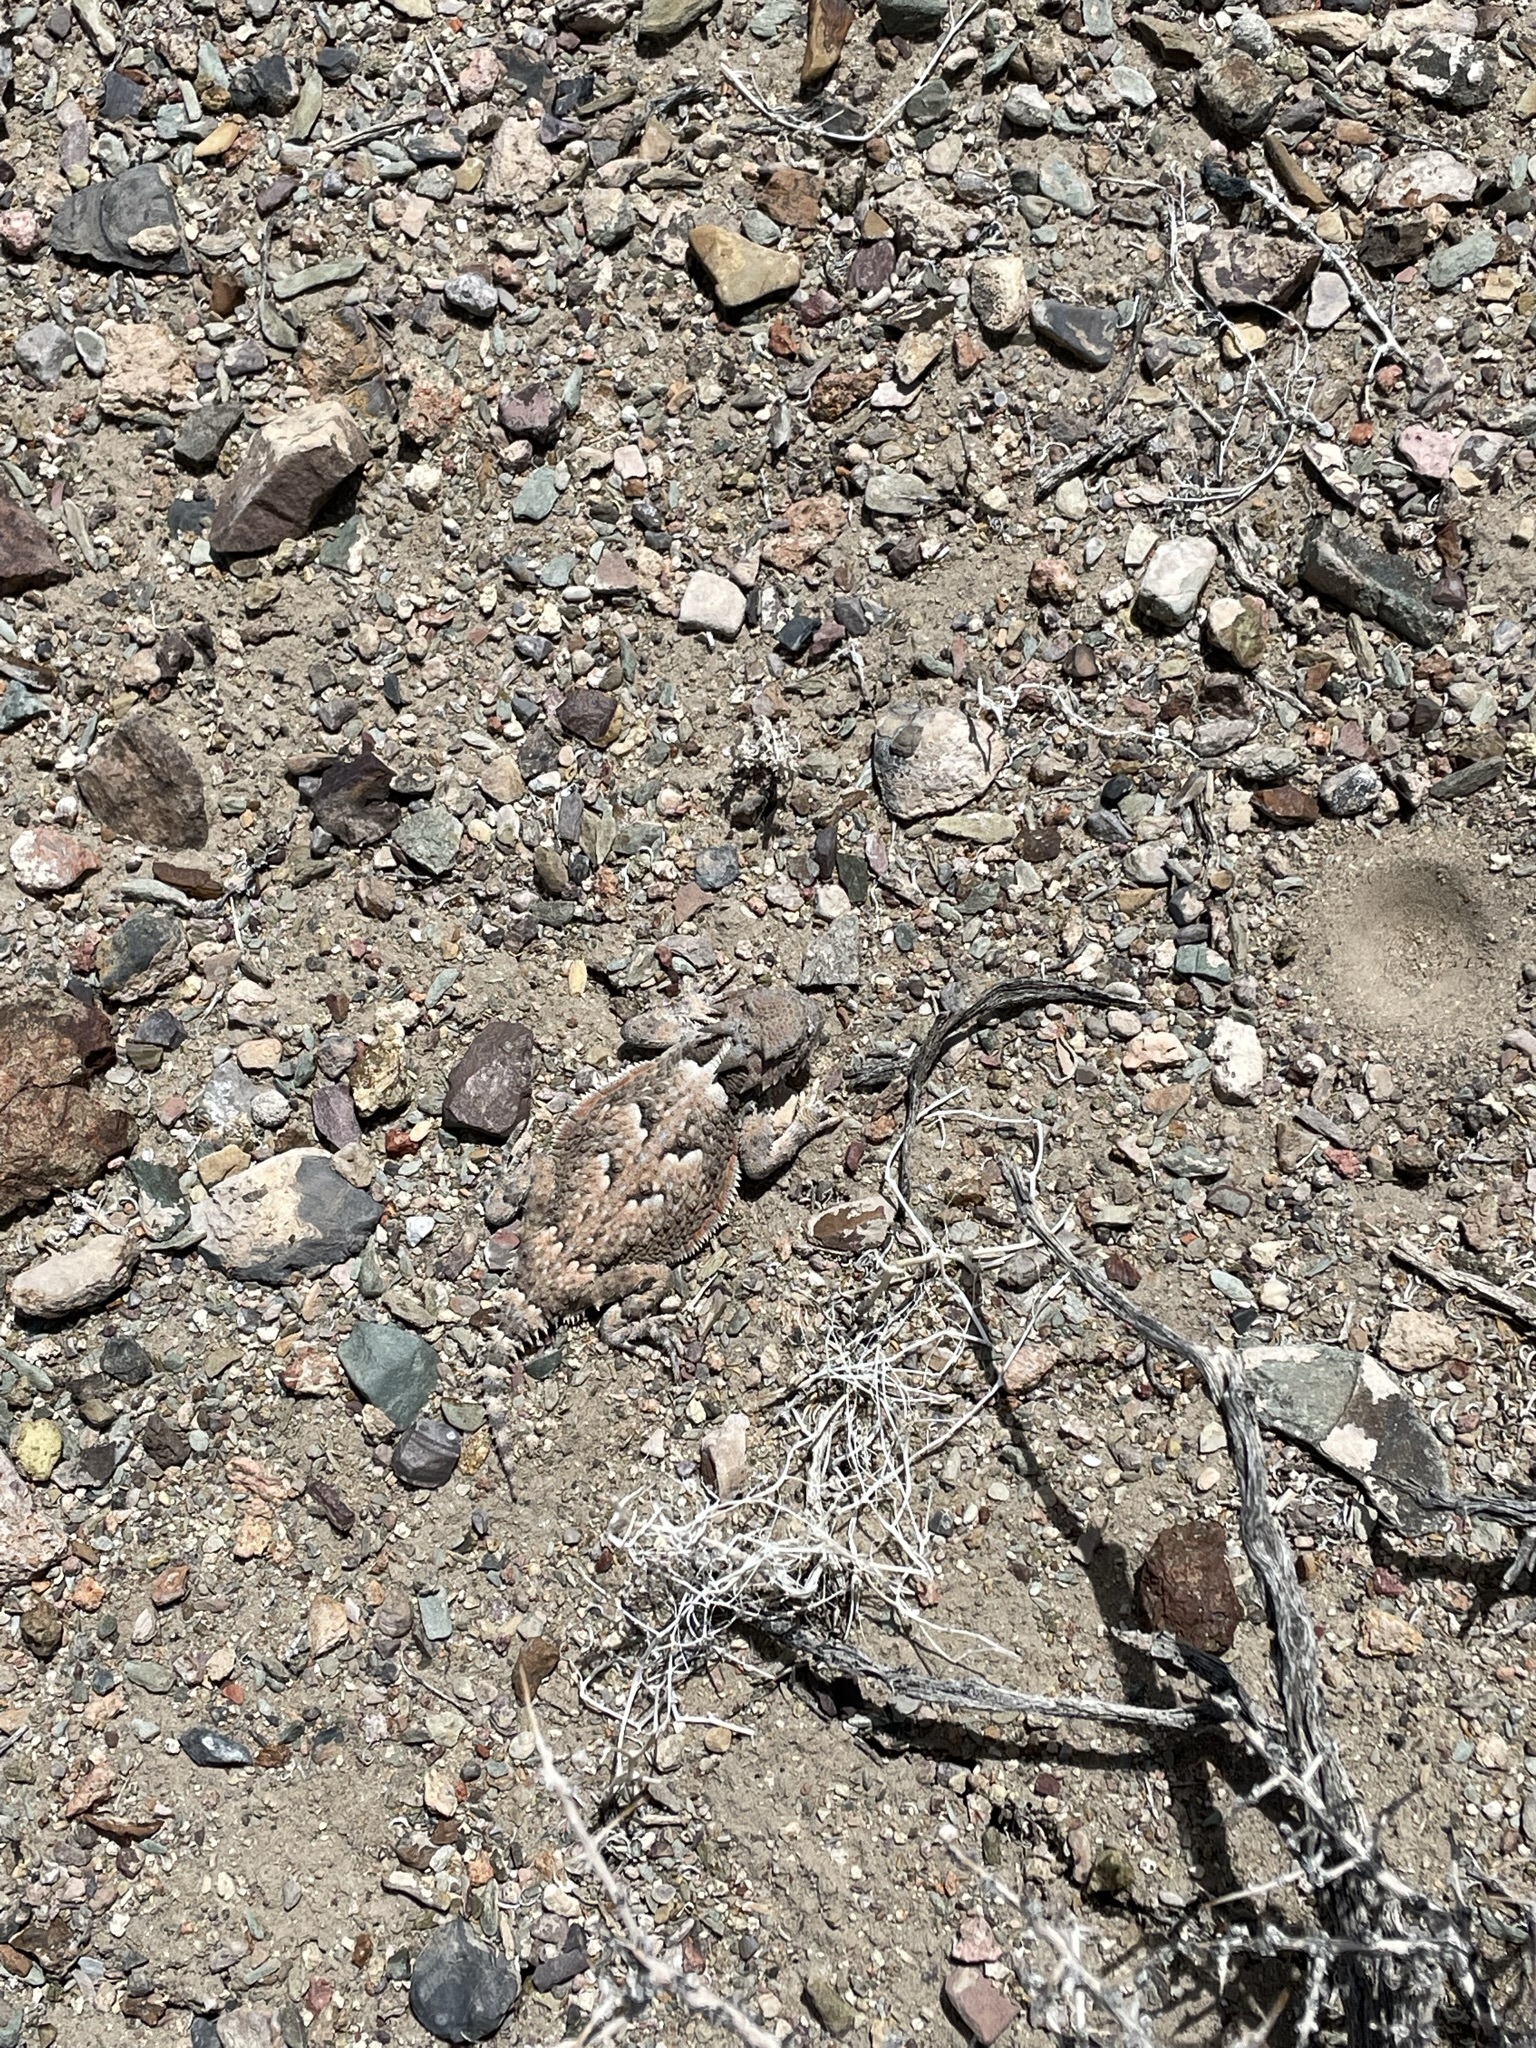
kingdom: Animalia
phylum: Chordata
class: Squamata
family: Phrynosomatidae
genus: Phrynosoma
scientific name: Phrynosoma platyrhinos
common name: Desert horned lizard
